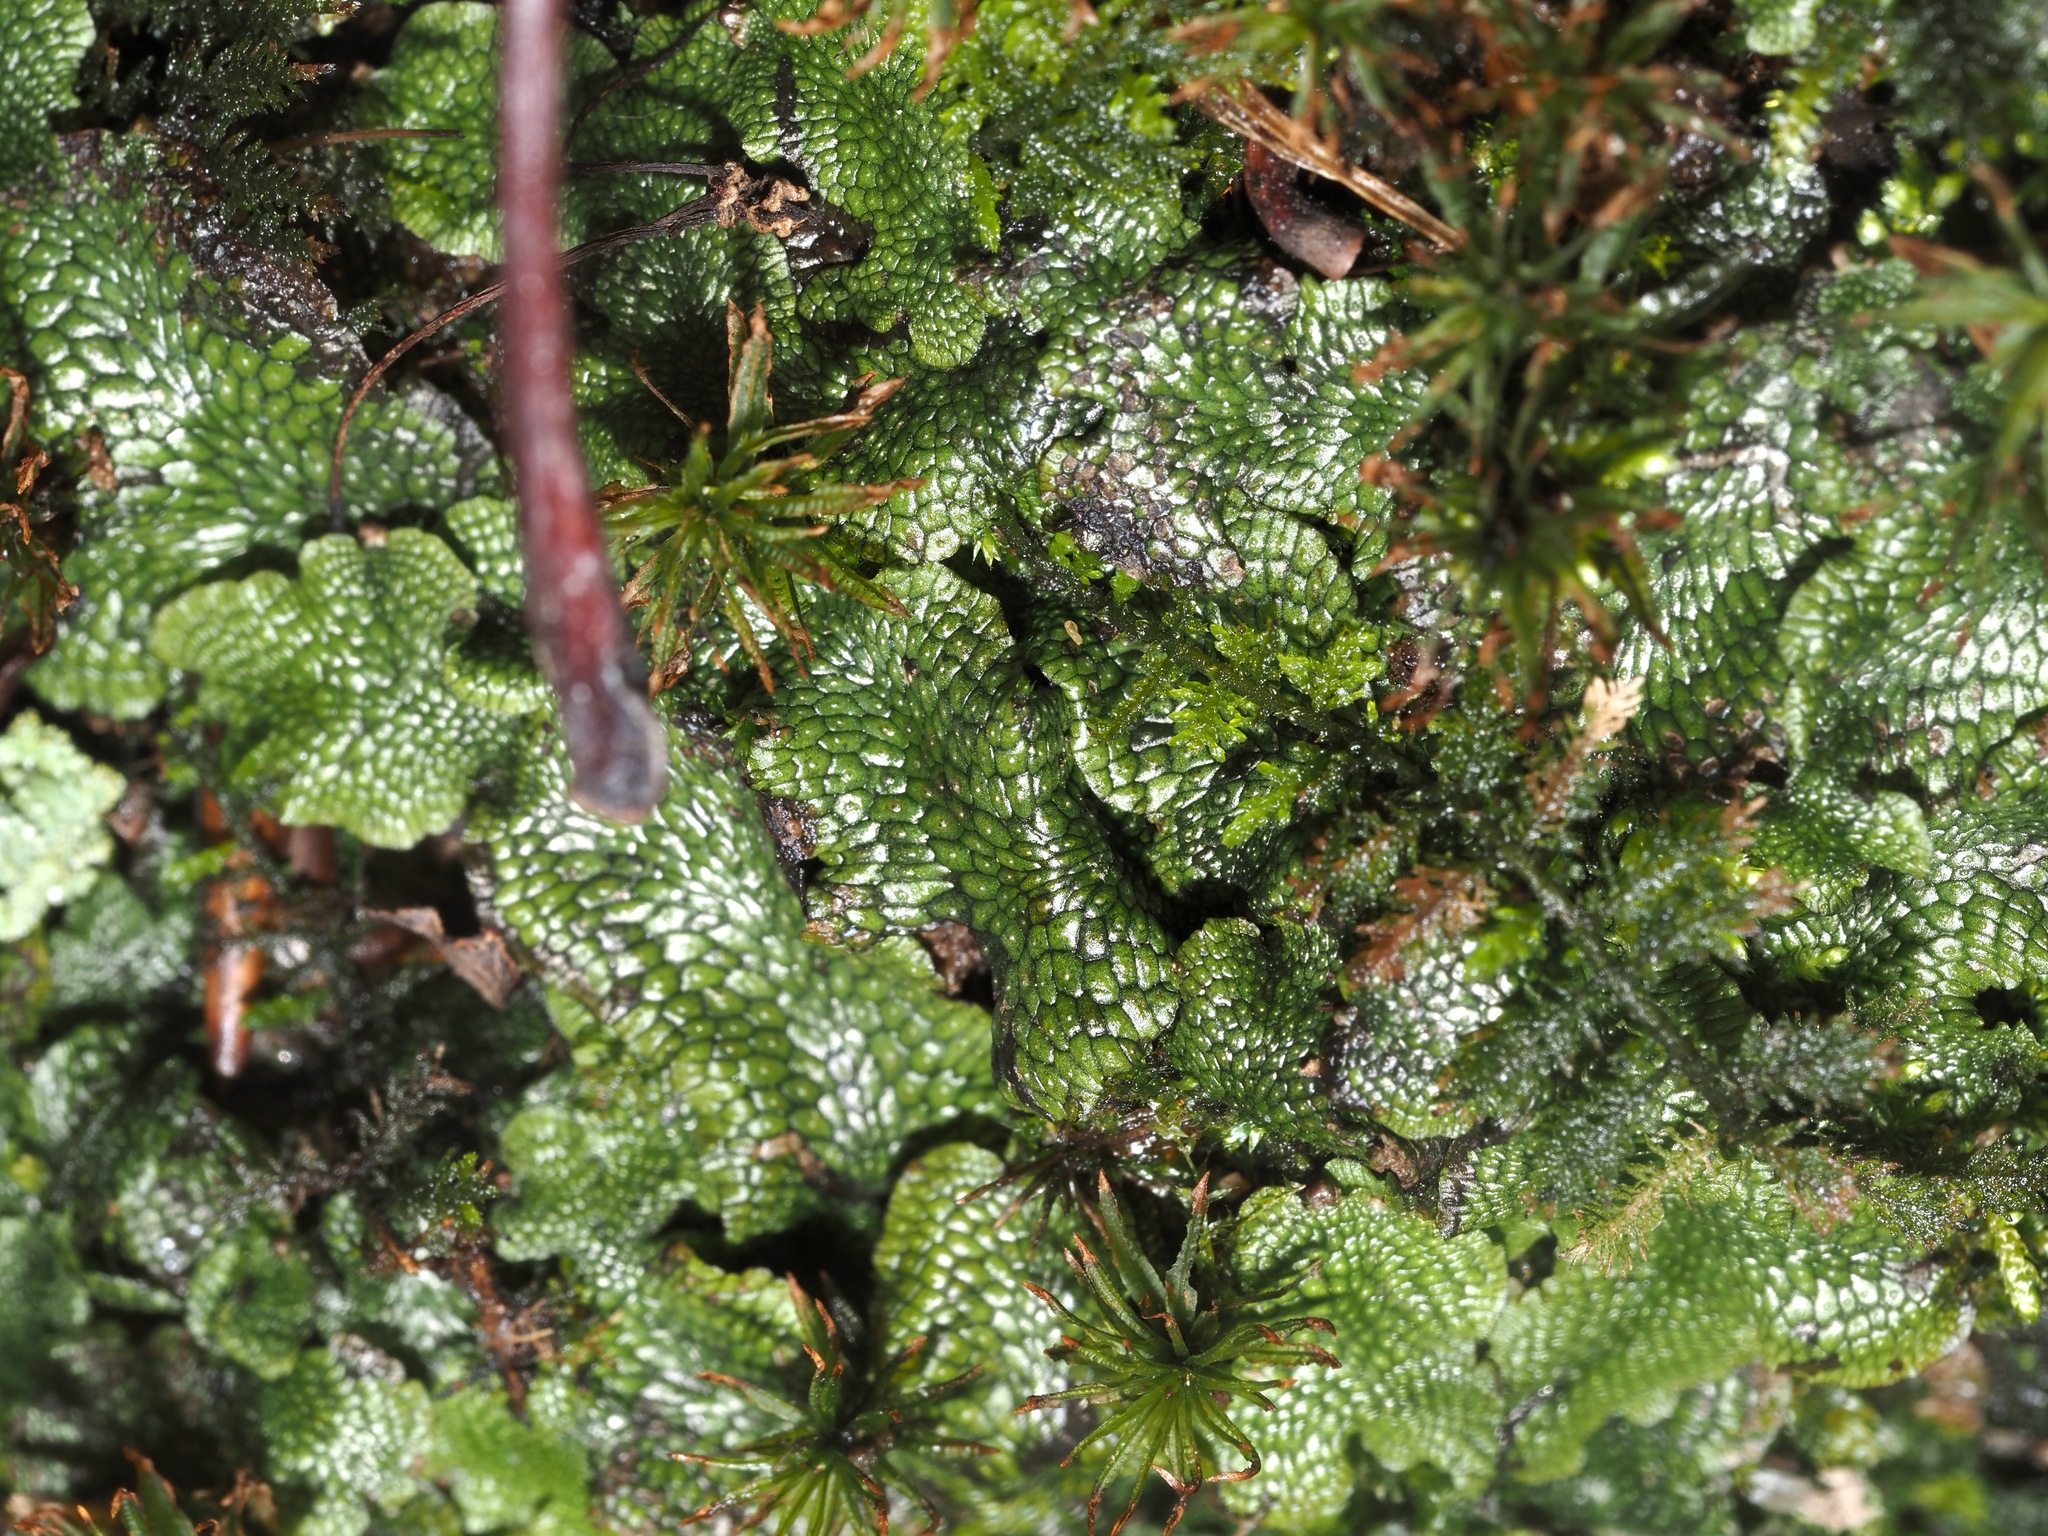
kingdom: Plantae
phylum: Marchantiophyta
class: Marchantiopsida
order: Marchantiales
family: Conocephalaceae
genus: Conocephalum
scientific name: Conocephalum salebrosum
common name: Cat-tongue liverwort
